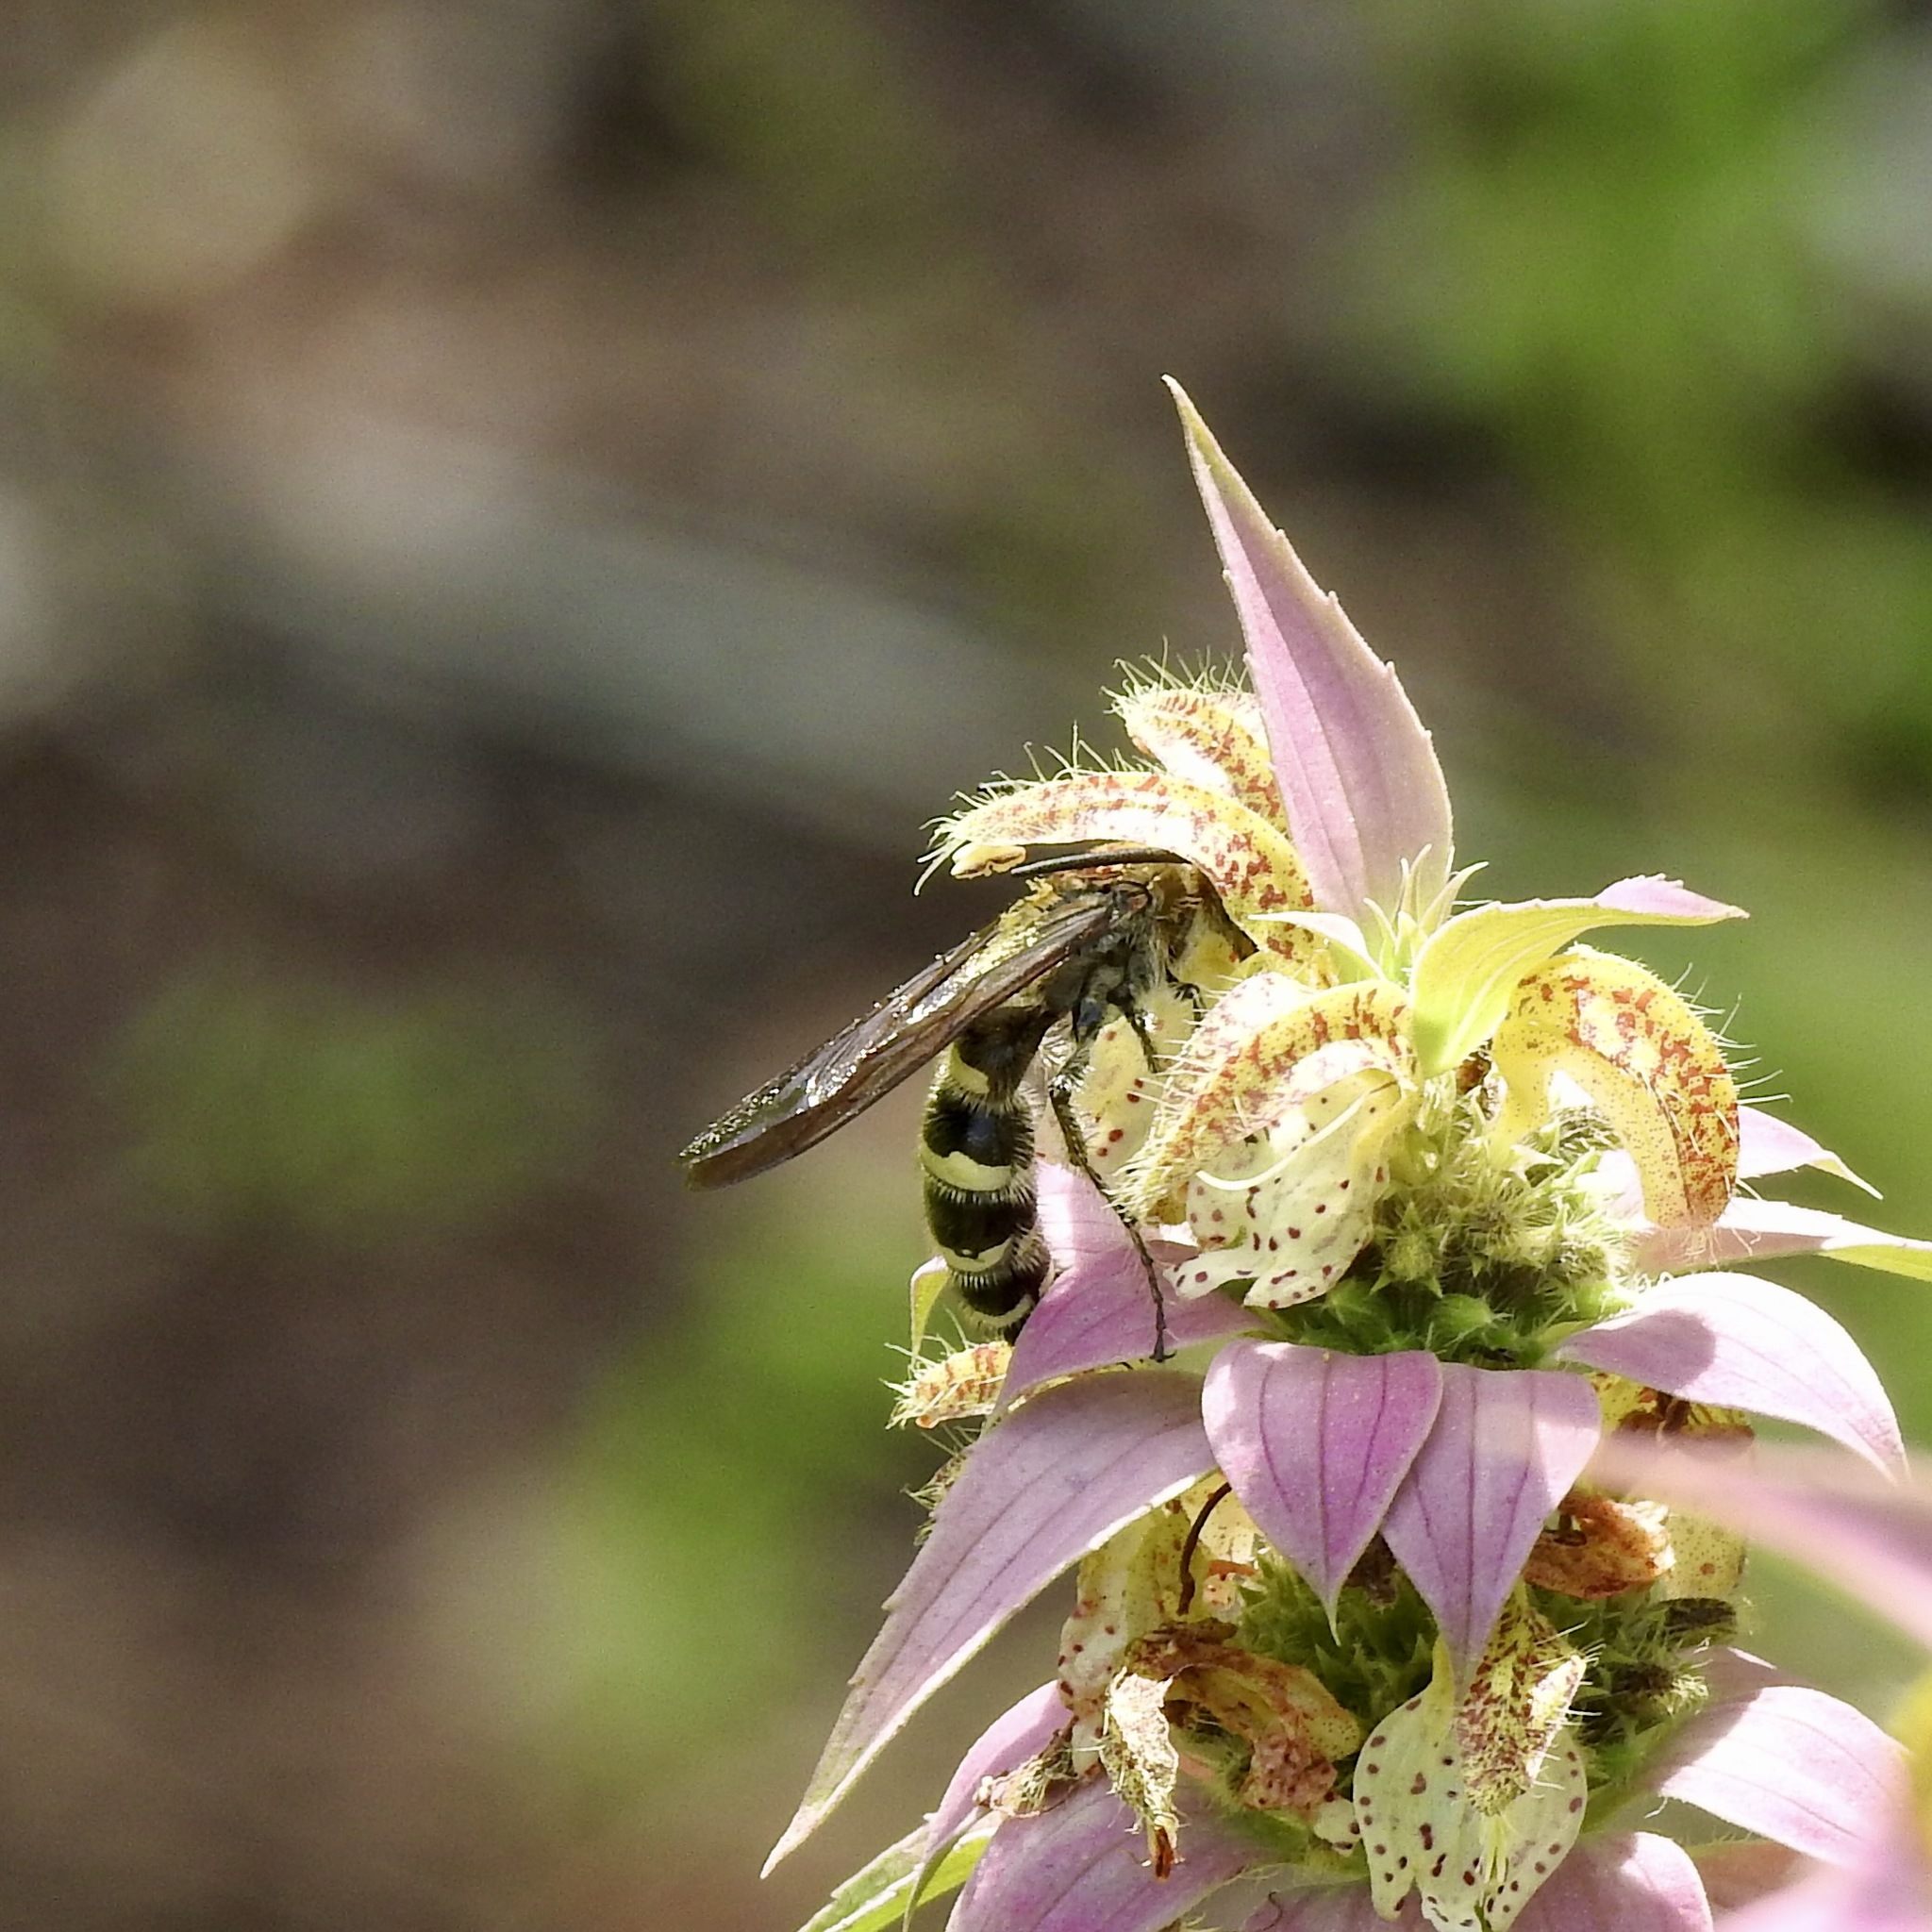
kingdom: Animalia
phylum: Arthropoda
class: Insecta
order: Hymenoptera
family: Scoliidae
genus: Dielis
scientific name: Dielis
